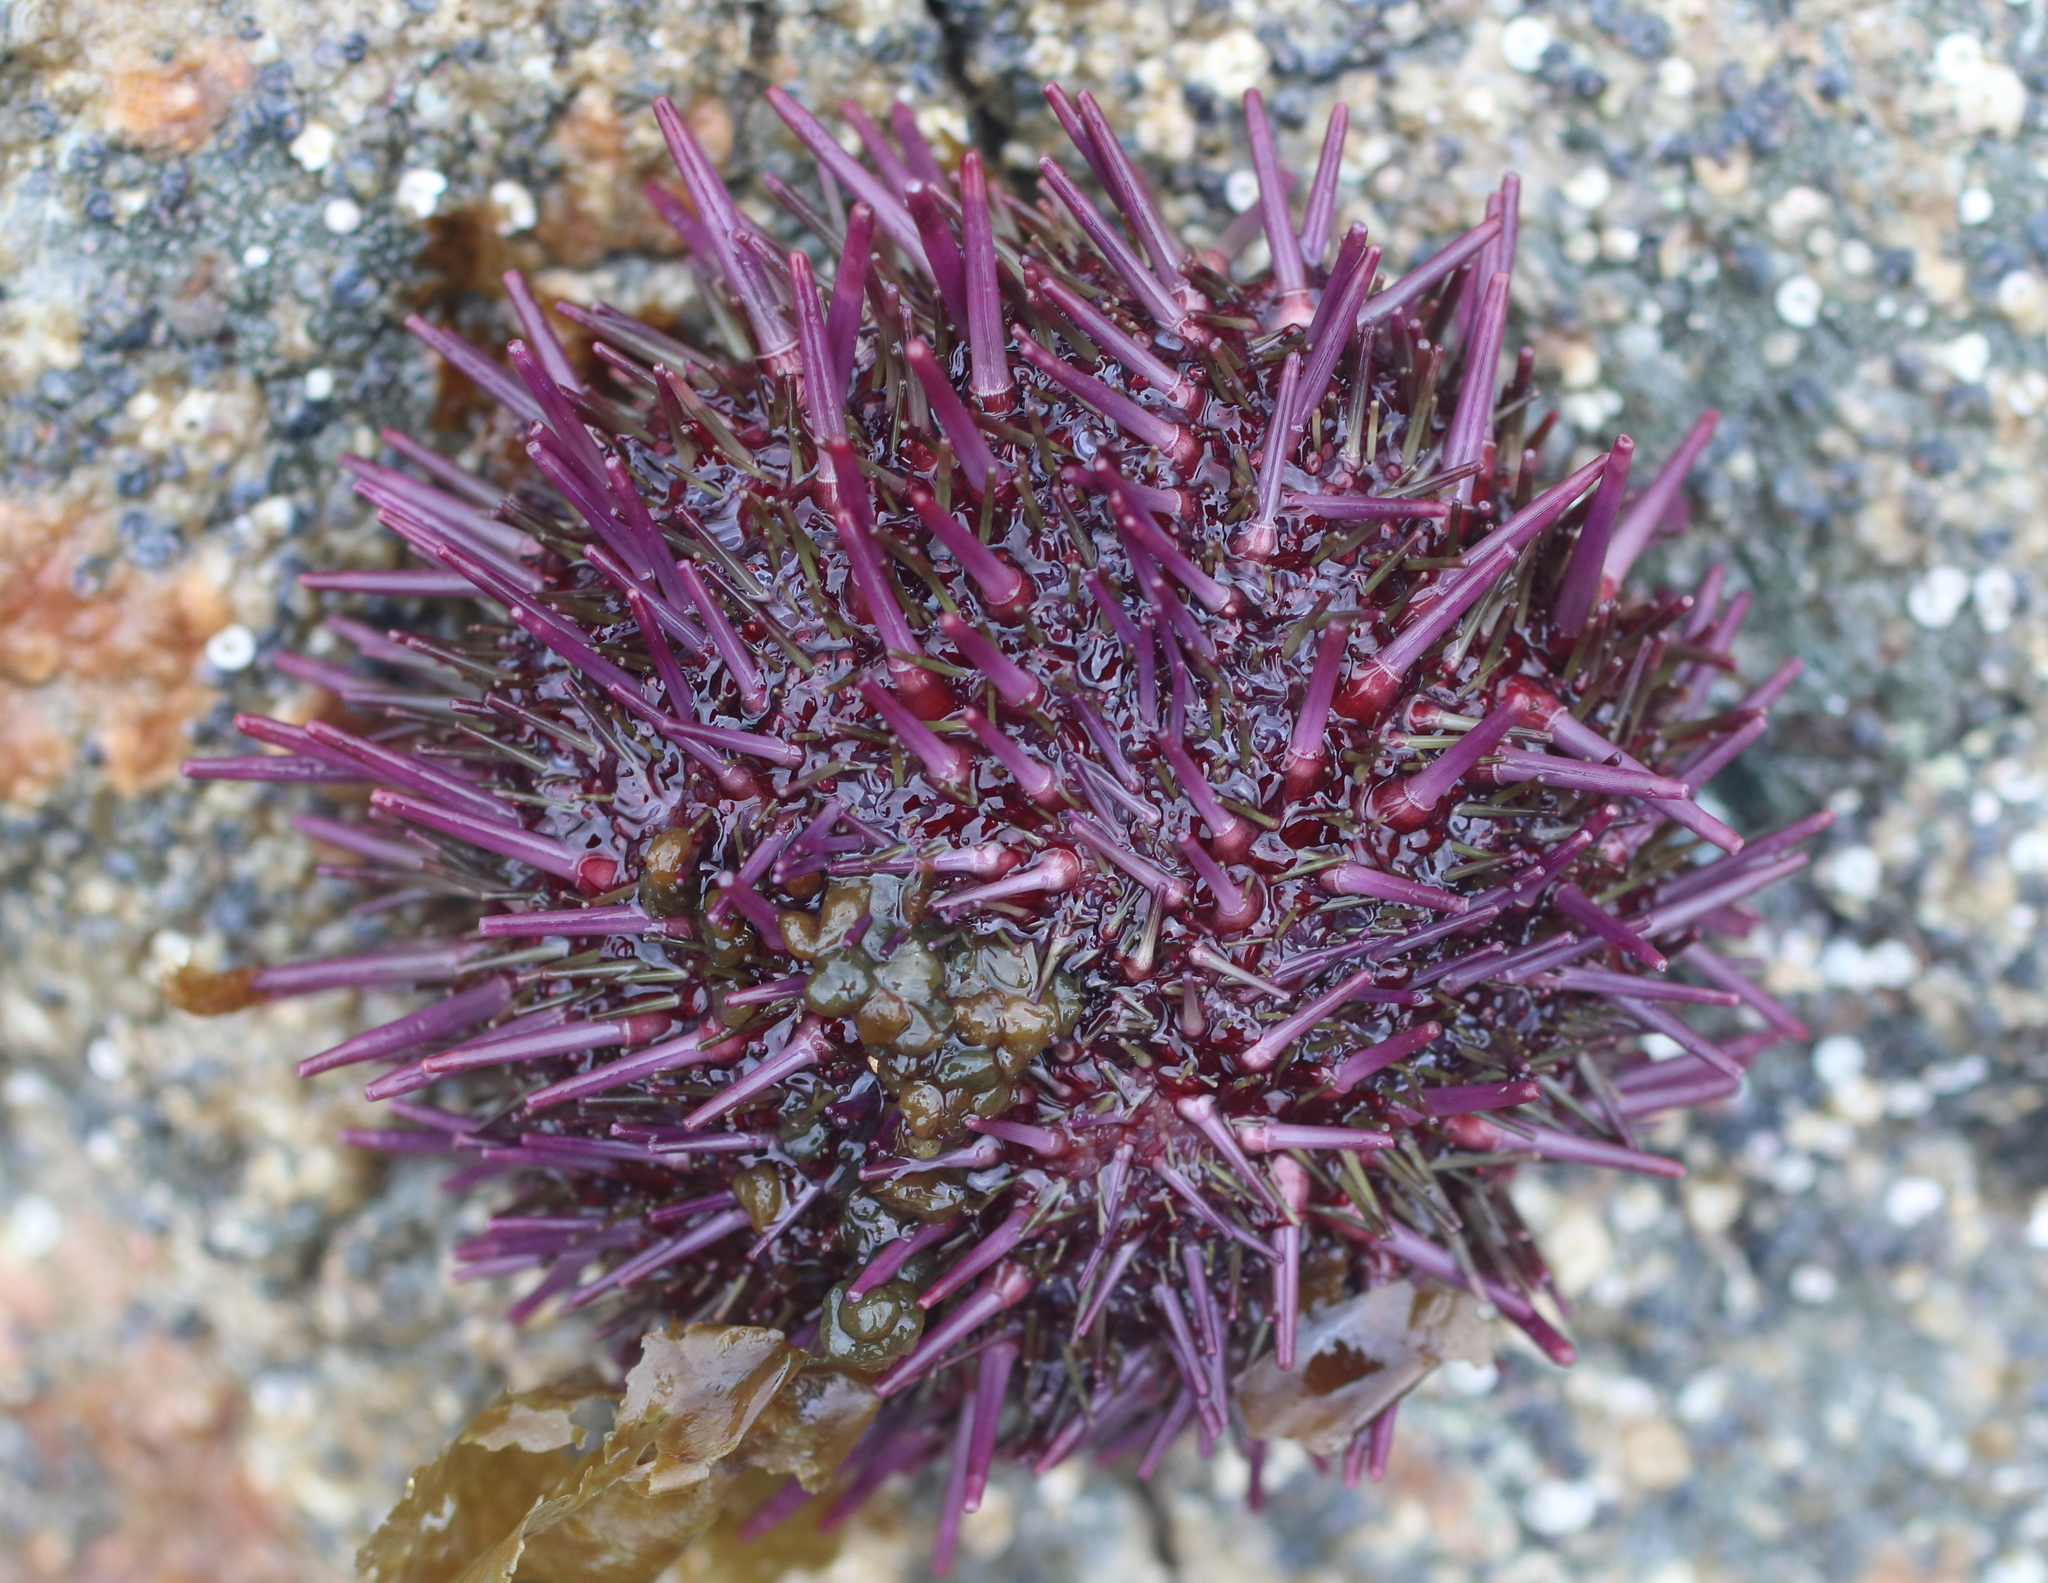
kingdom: Animalia
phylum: Echinodermata
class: Echinoidea
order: Camarodonta
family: Strongylocentrotidae
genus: Strongylocentrotus
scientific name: Strongylocentrotus purpuratus
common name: Purple sea urchin
